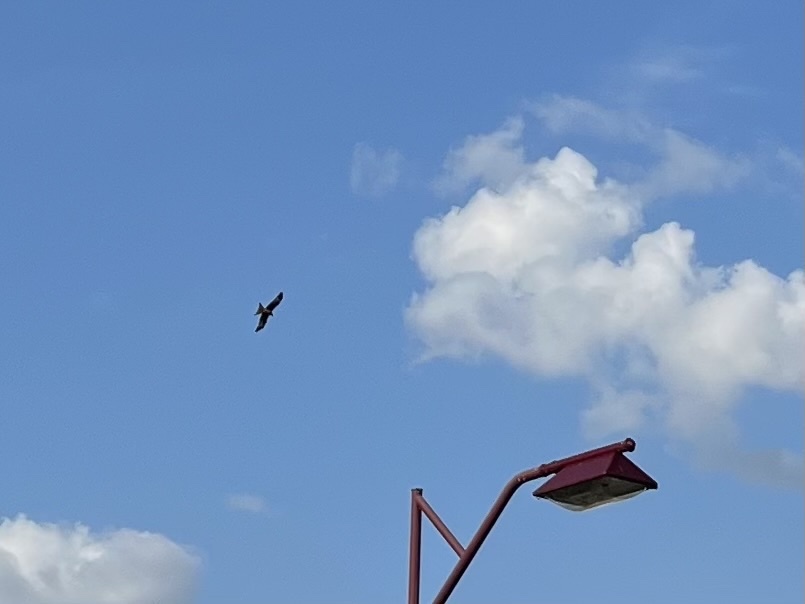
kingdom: Animalia
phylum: Chordata
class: Aves
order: Accipitriformes
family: Accipitridae
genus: Milvus
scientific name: Milvus milvus
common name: Red kite
